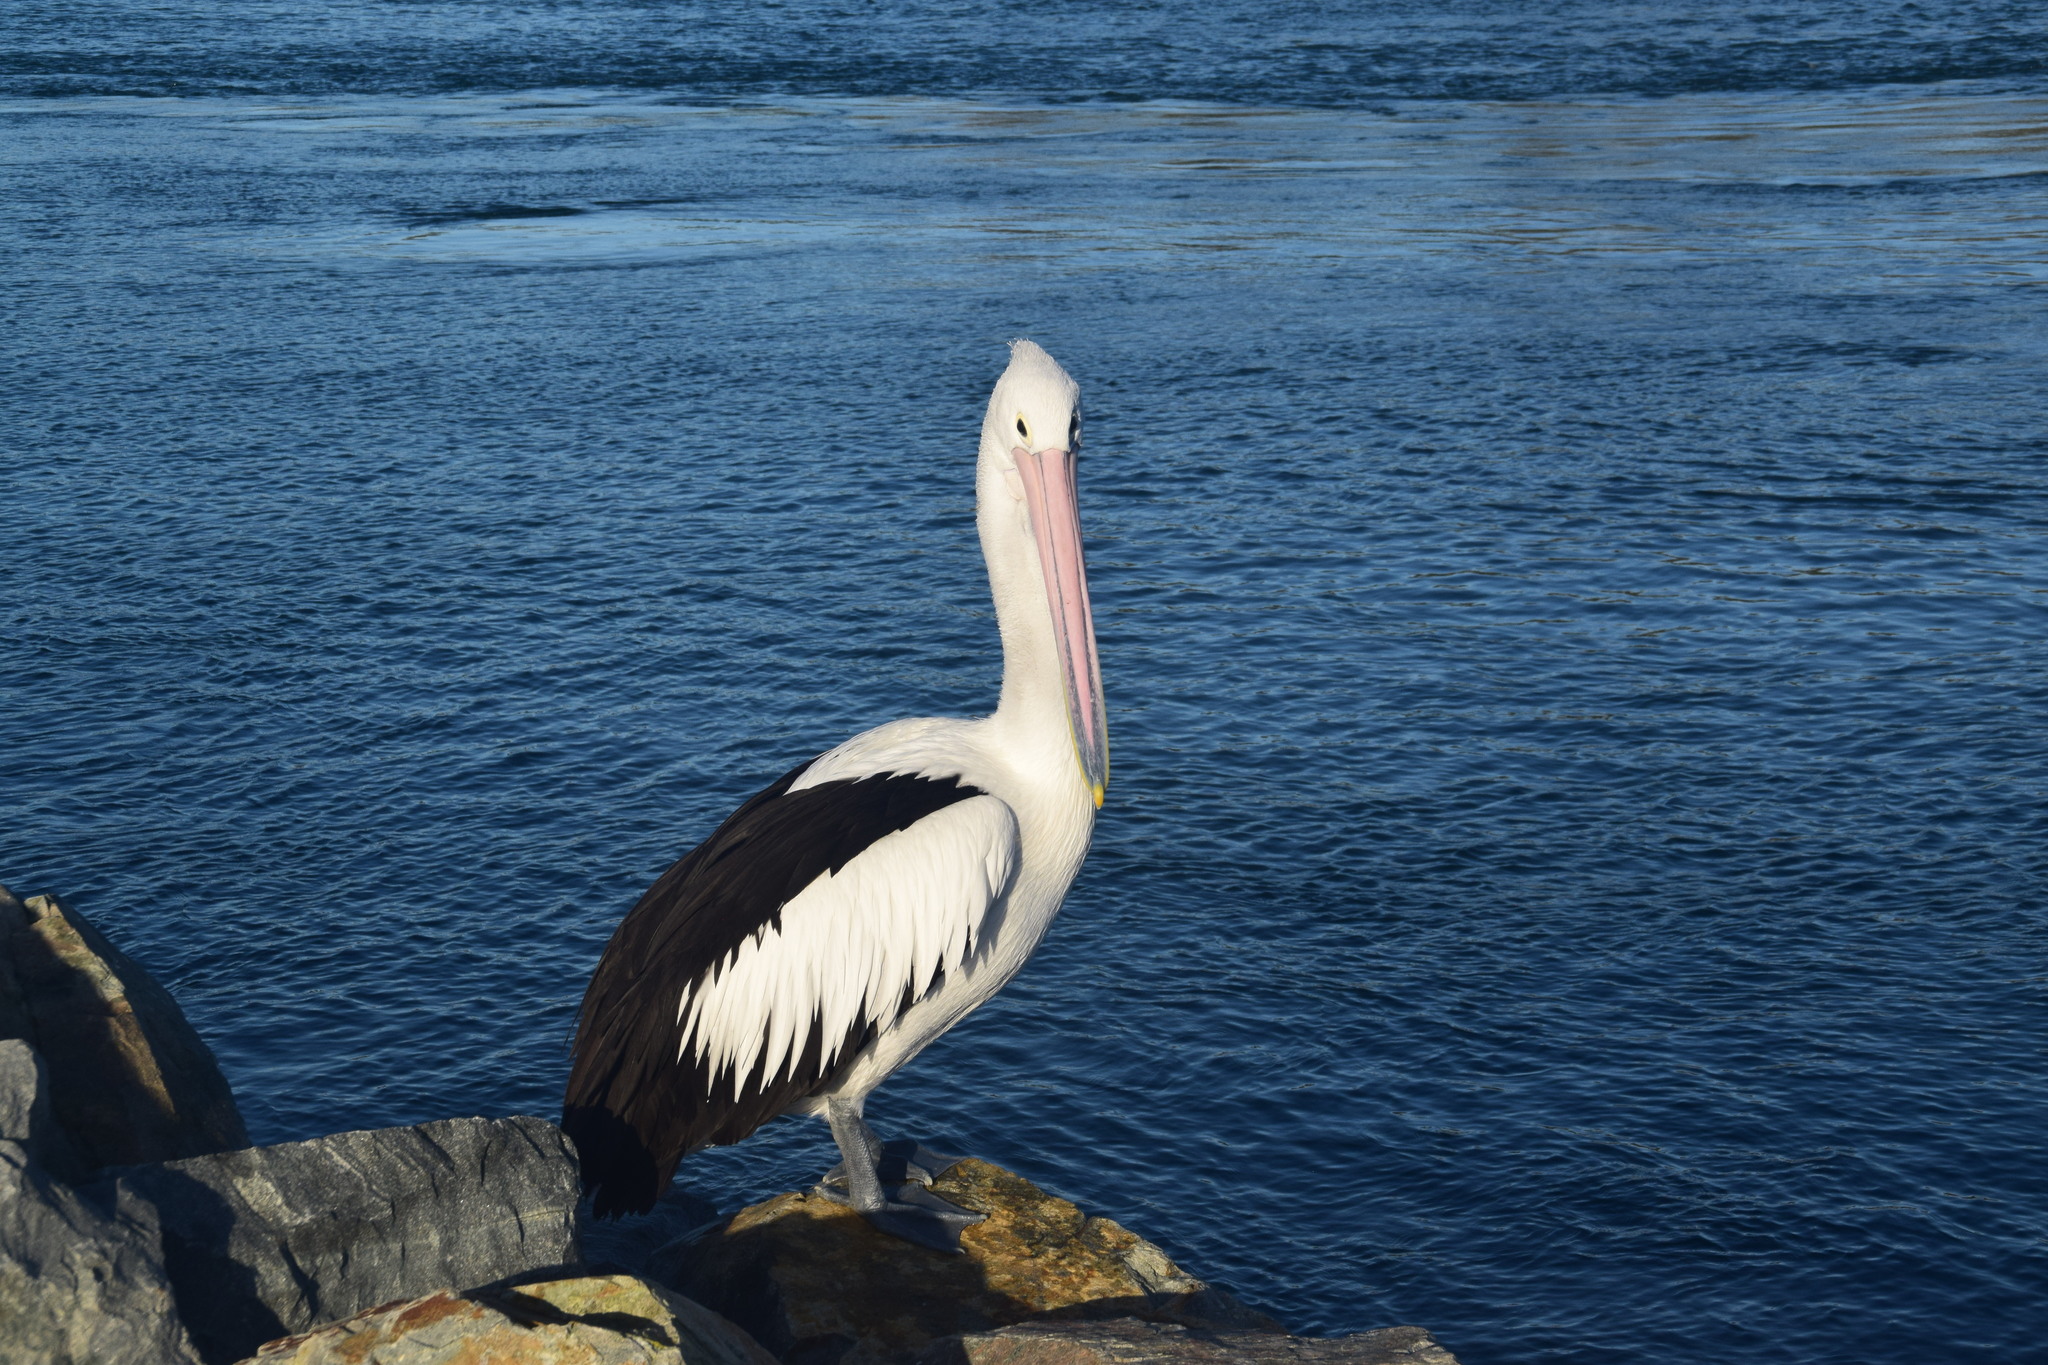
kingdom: Animalia
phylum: Chordata
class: Aves
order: Pelecaniformes
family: Pelecanidae
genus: Pelecanus
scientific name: Pelecanus conspicillatus
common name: Australian pelican
